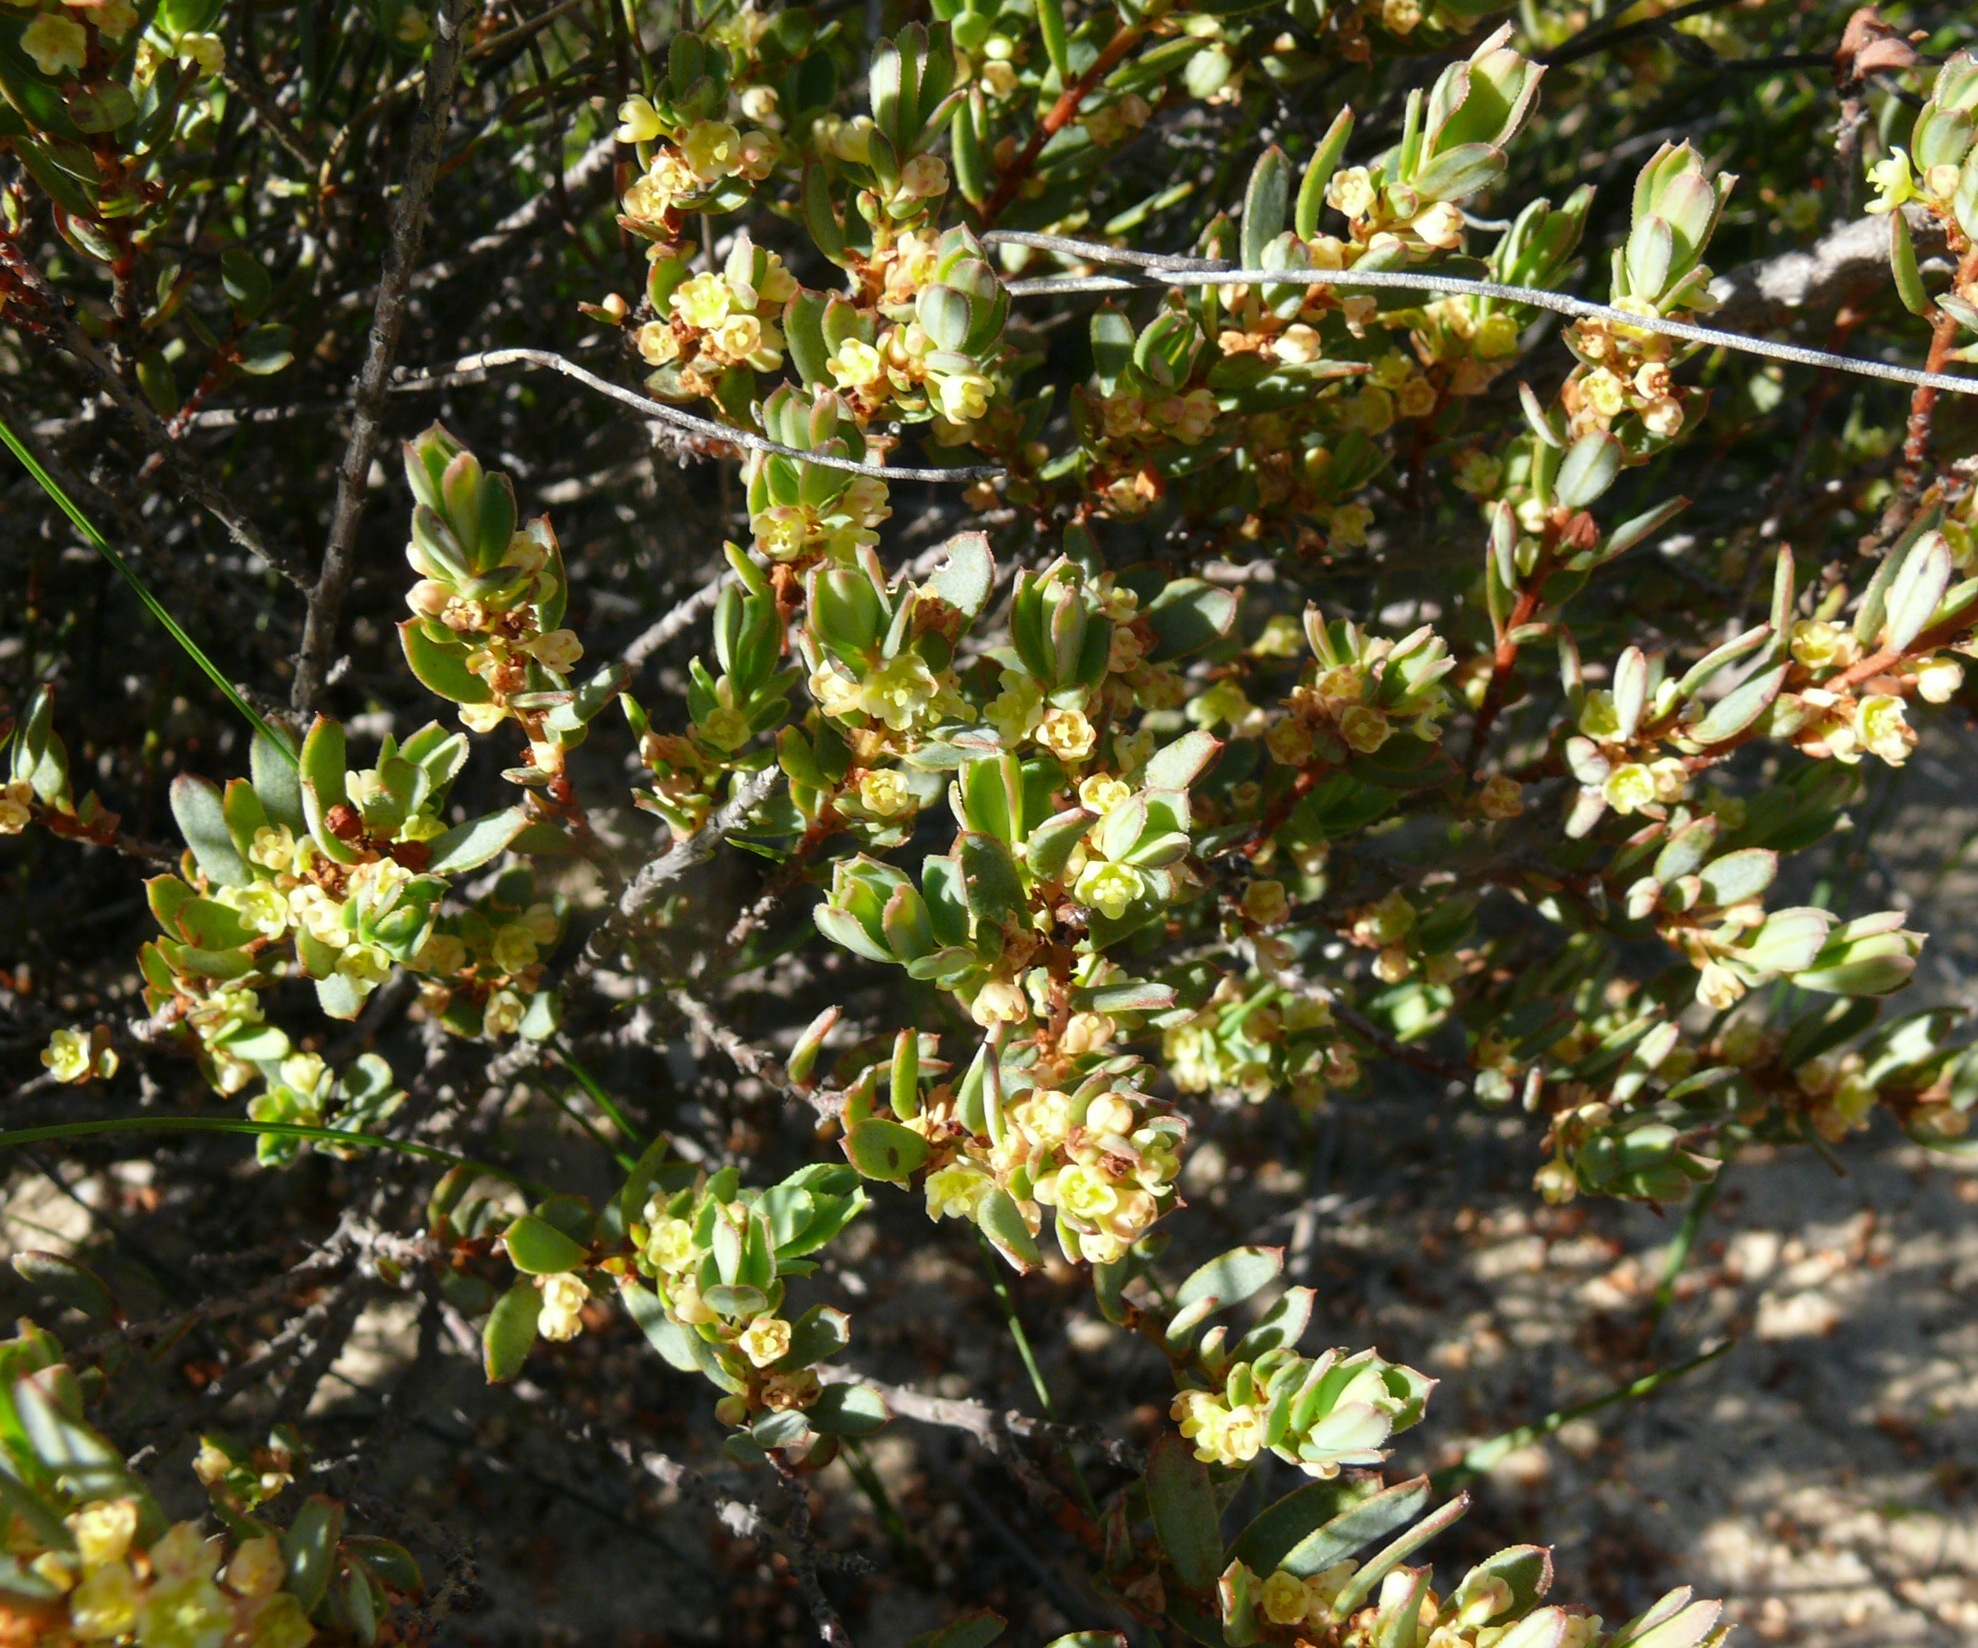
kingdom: Plantae
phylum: Tracheophyta
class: Magnoliopsida
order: Malpighiales
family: Peraceae
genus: Clutia
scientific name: Clutia alaternoides
